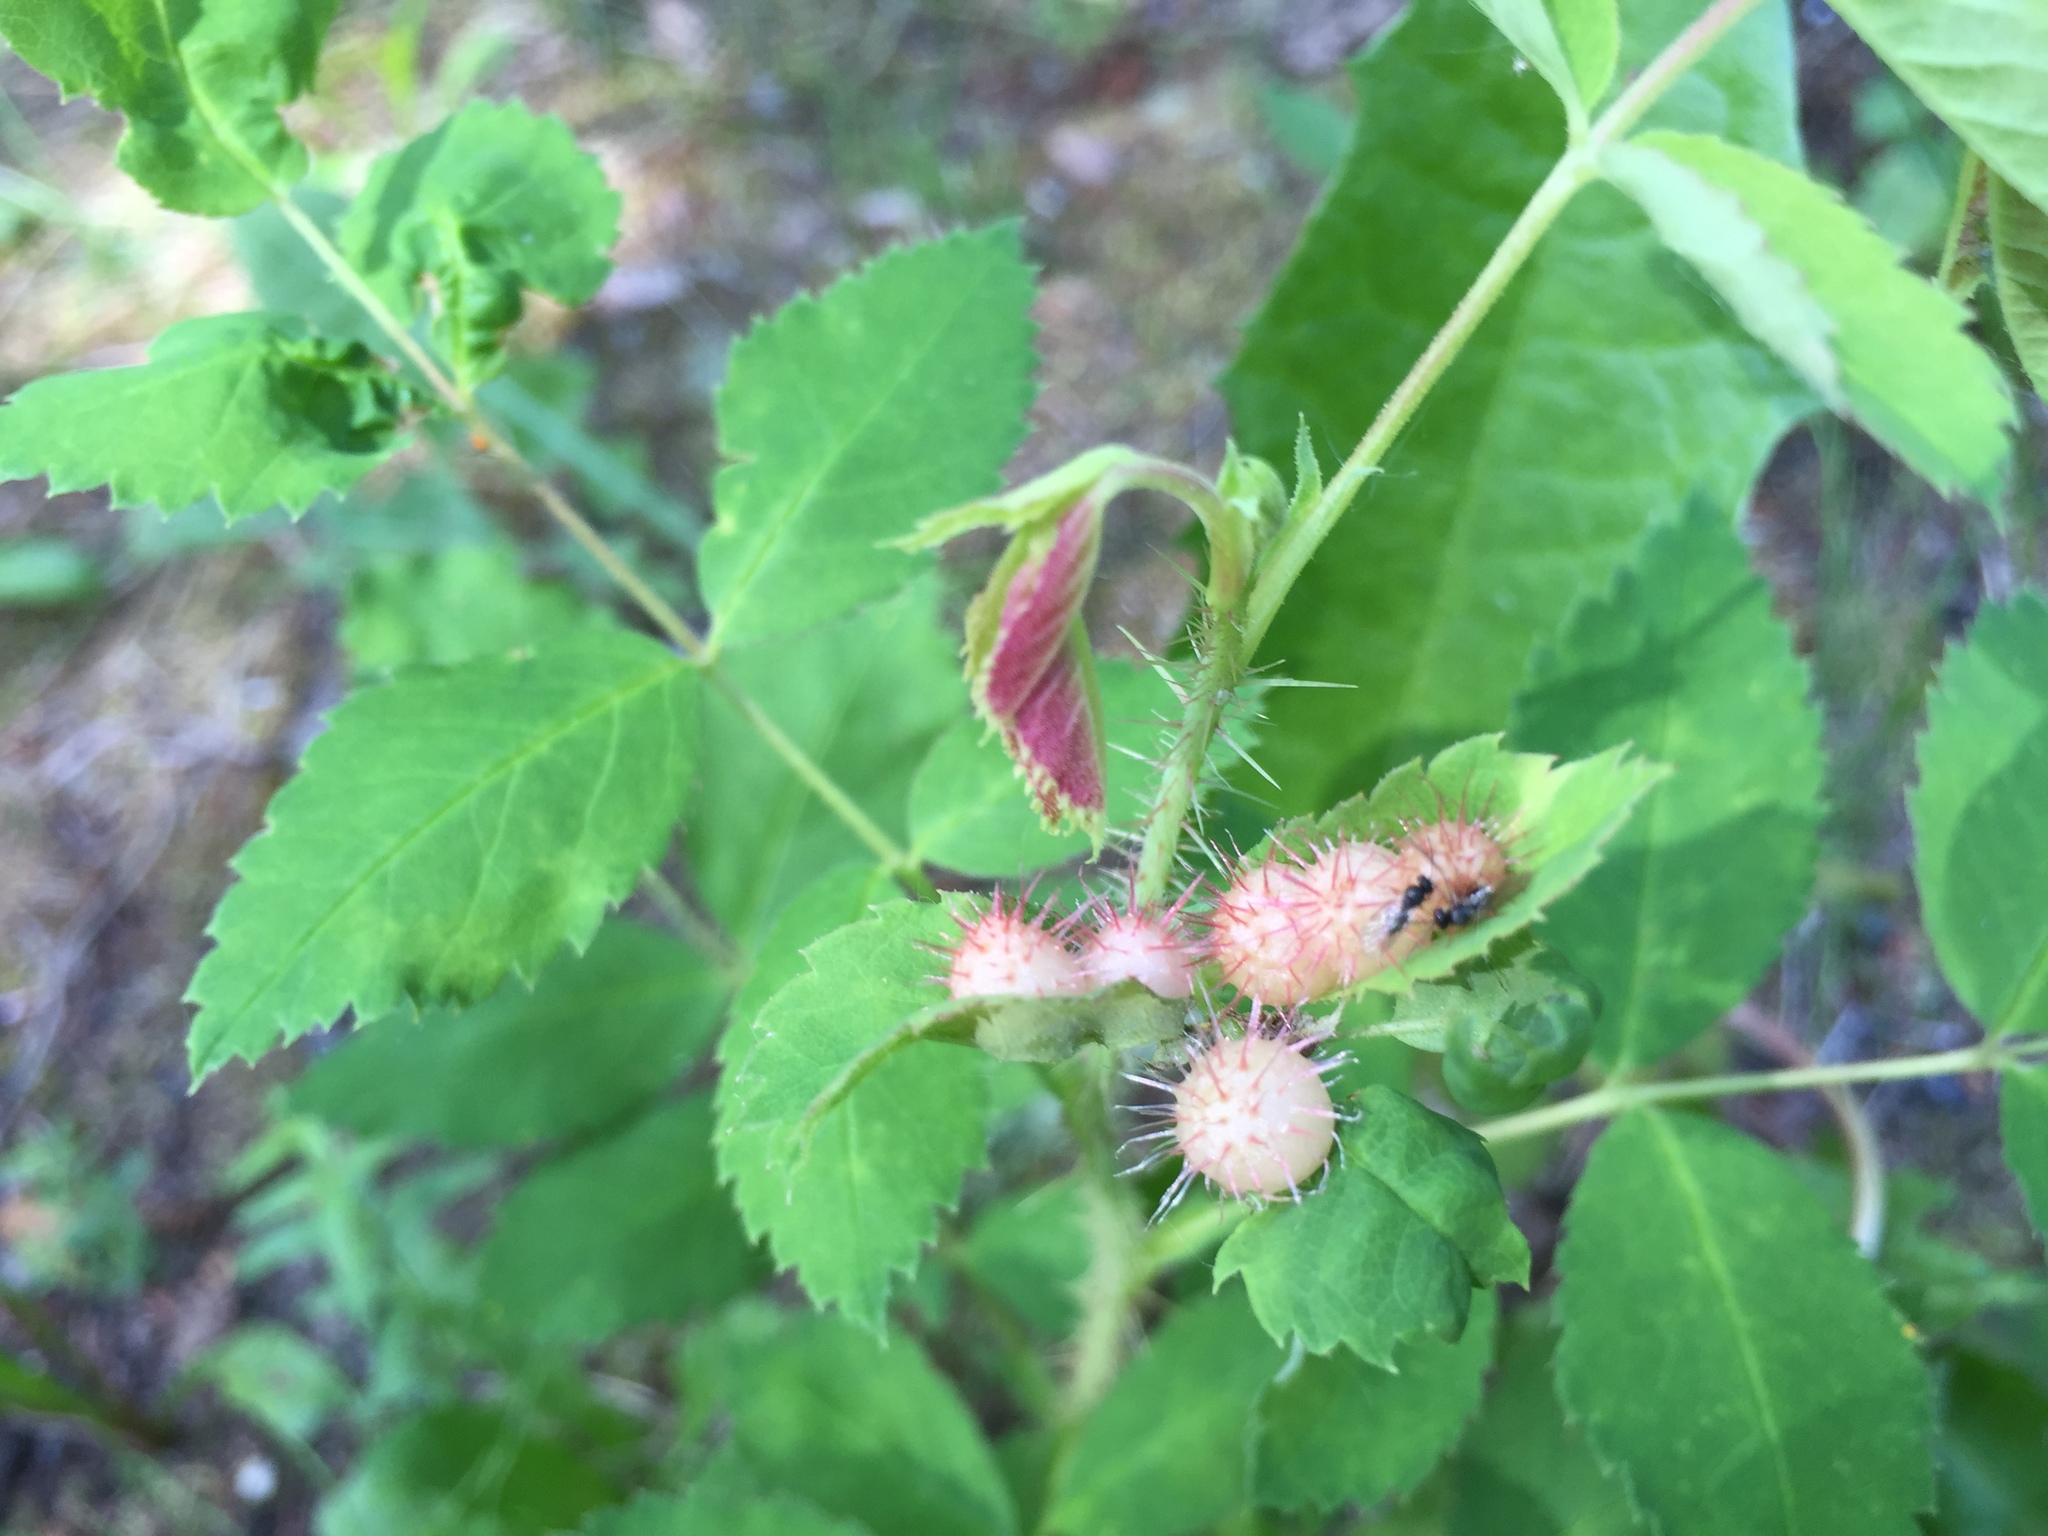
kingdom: Animalia
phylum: Arthropoda
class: Insecta
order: Hymenoptera
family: Cynipidae
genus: Diplolepis
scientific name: Diplolepis polita
